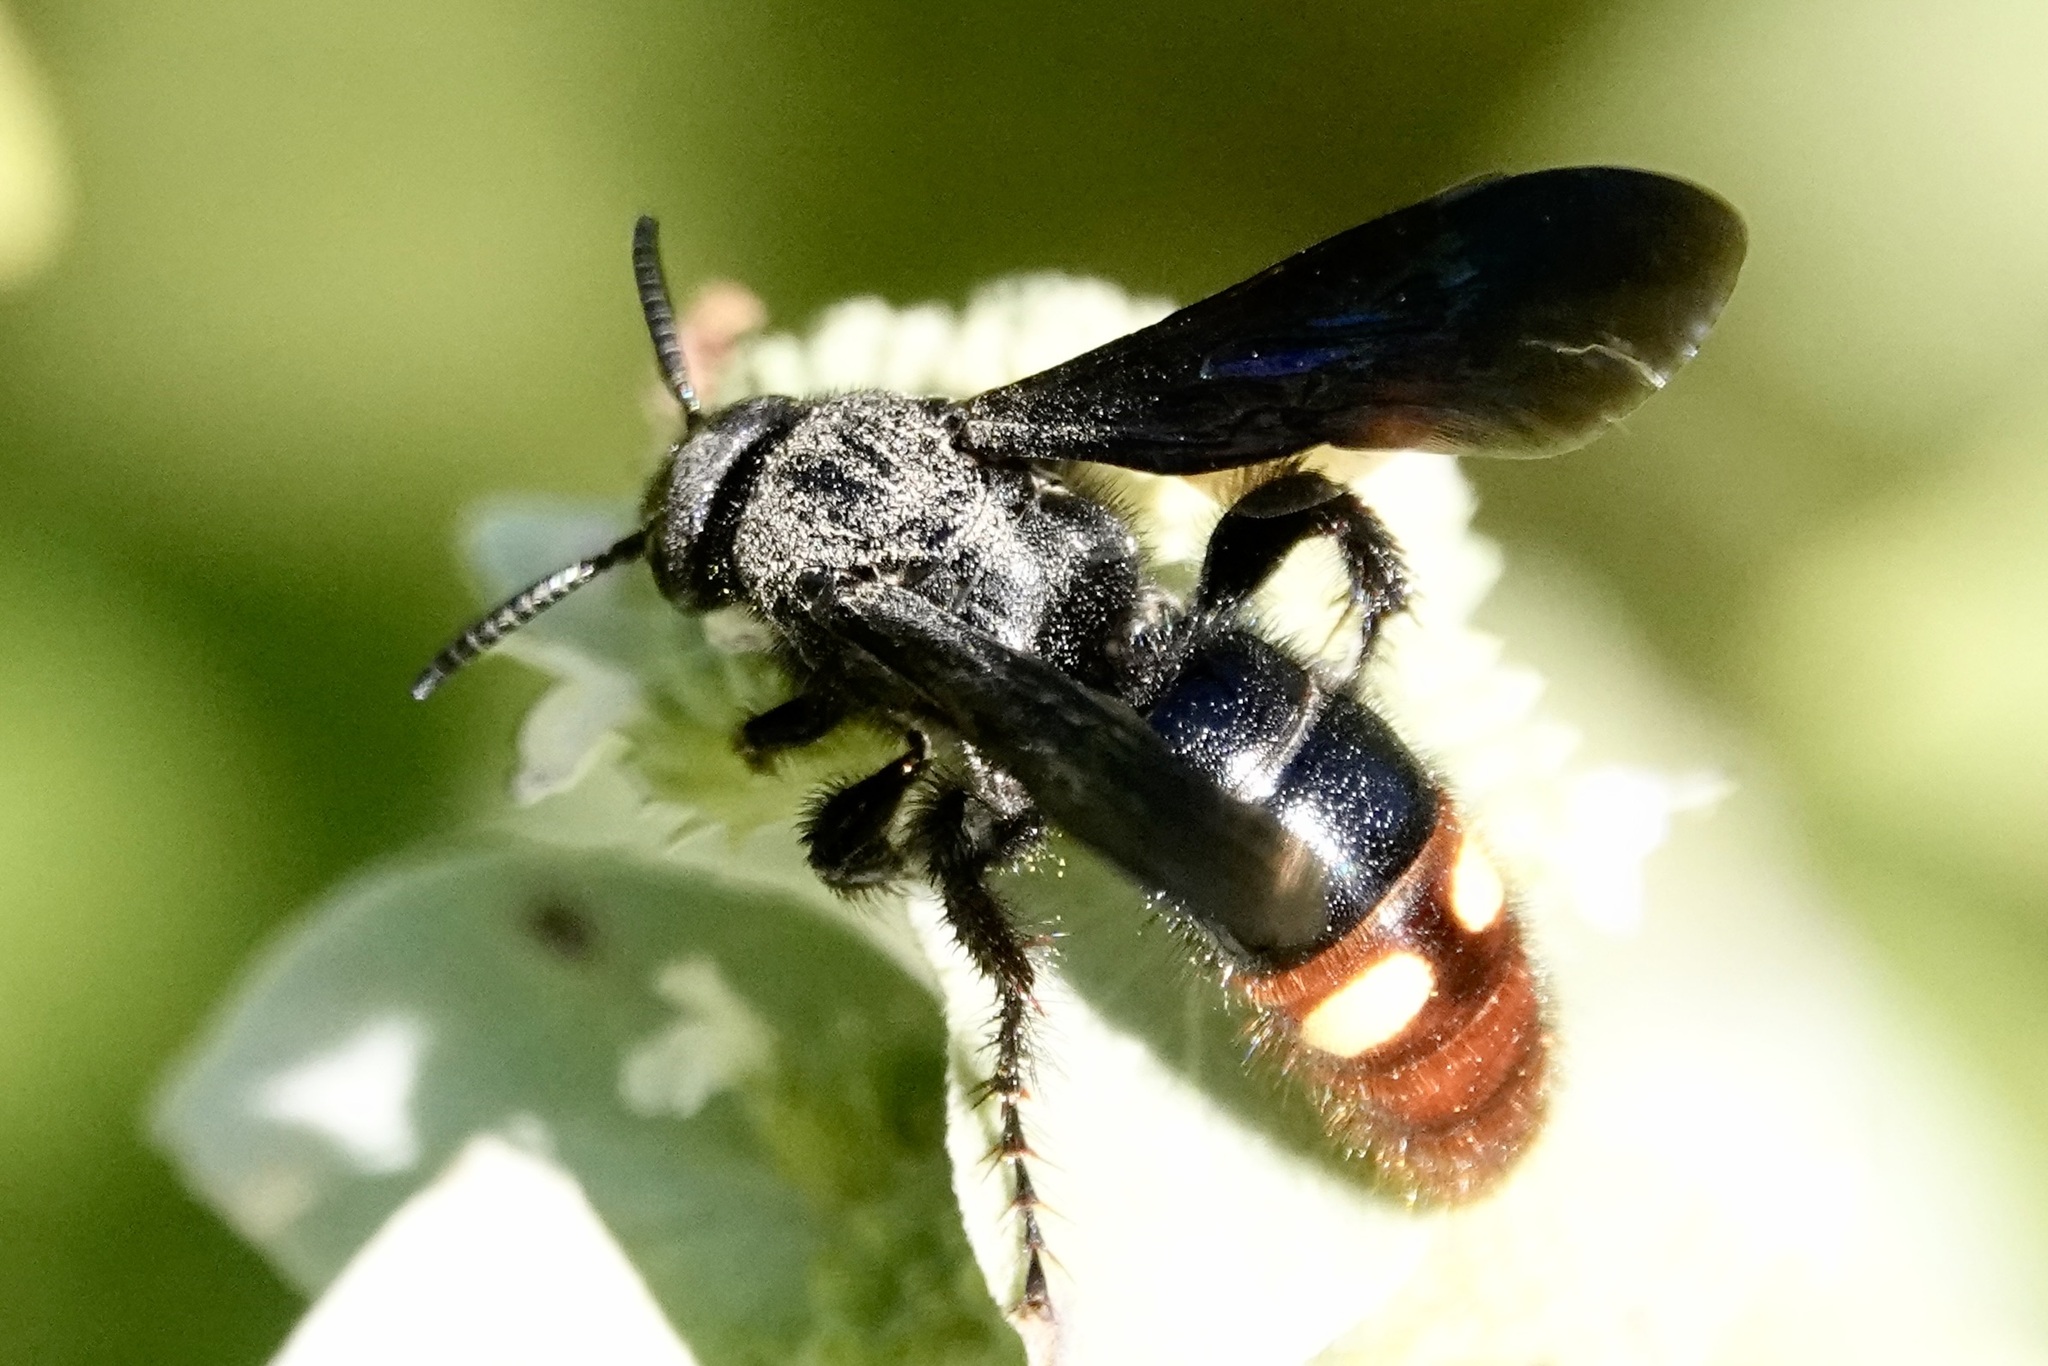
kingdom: Animalia
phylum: Arthropoda
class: Insecta
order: Hymenoptera
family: Scoliidae
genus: Scolia
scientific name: Scolia dubia
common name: Blue-winged scoliid wasp
